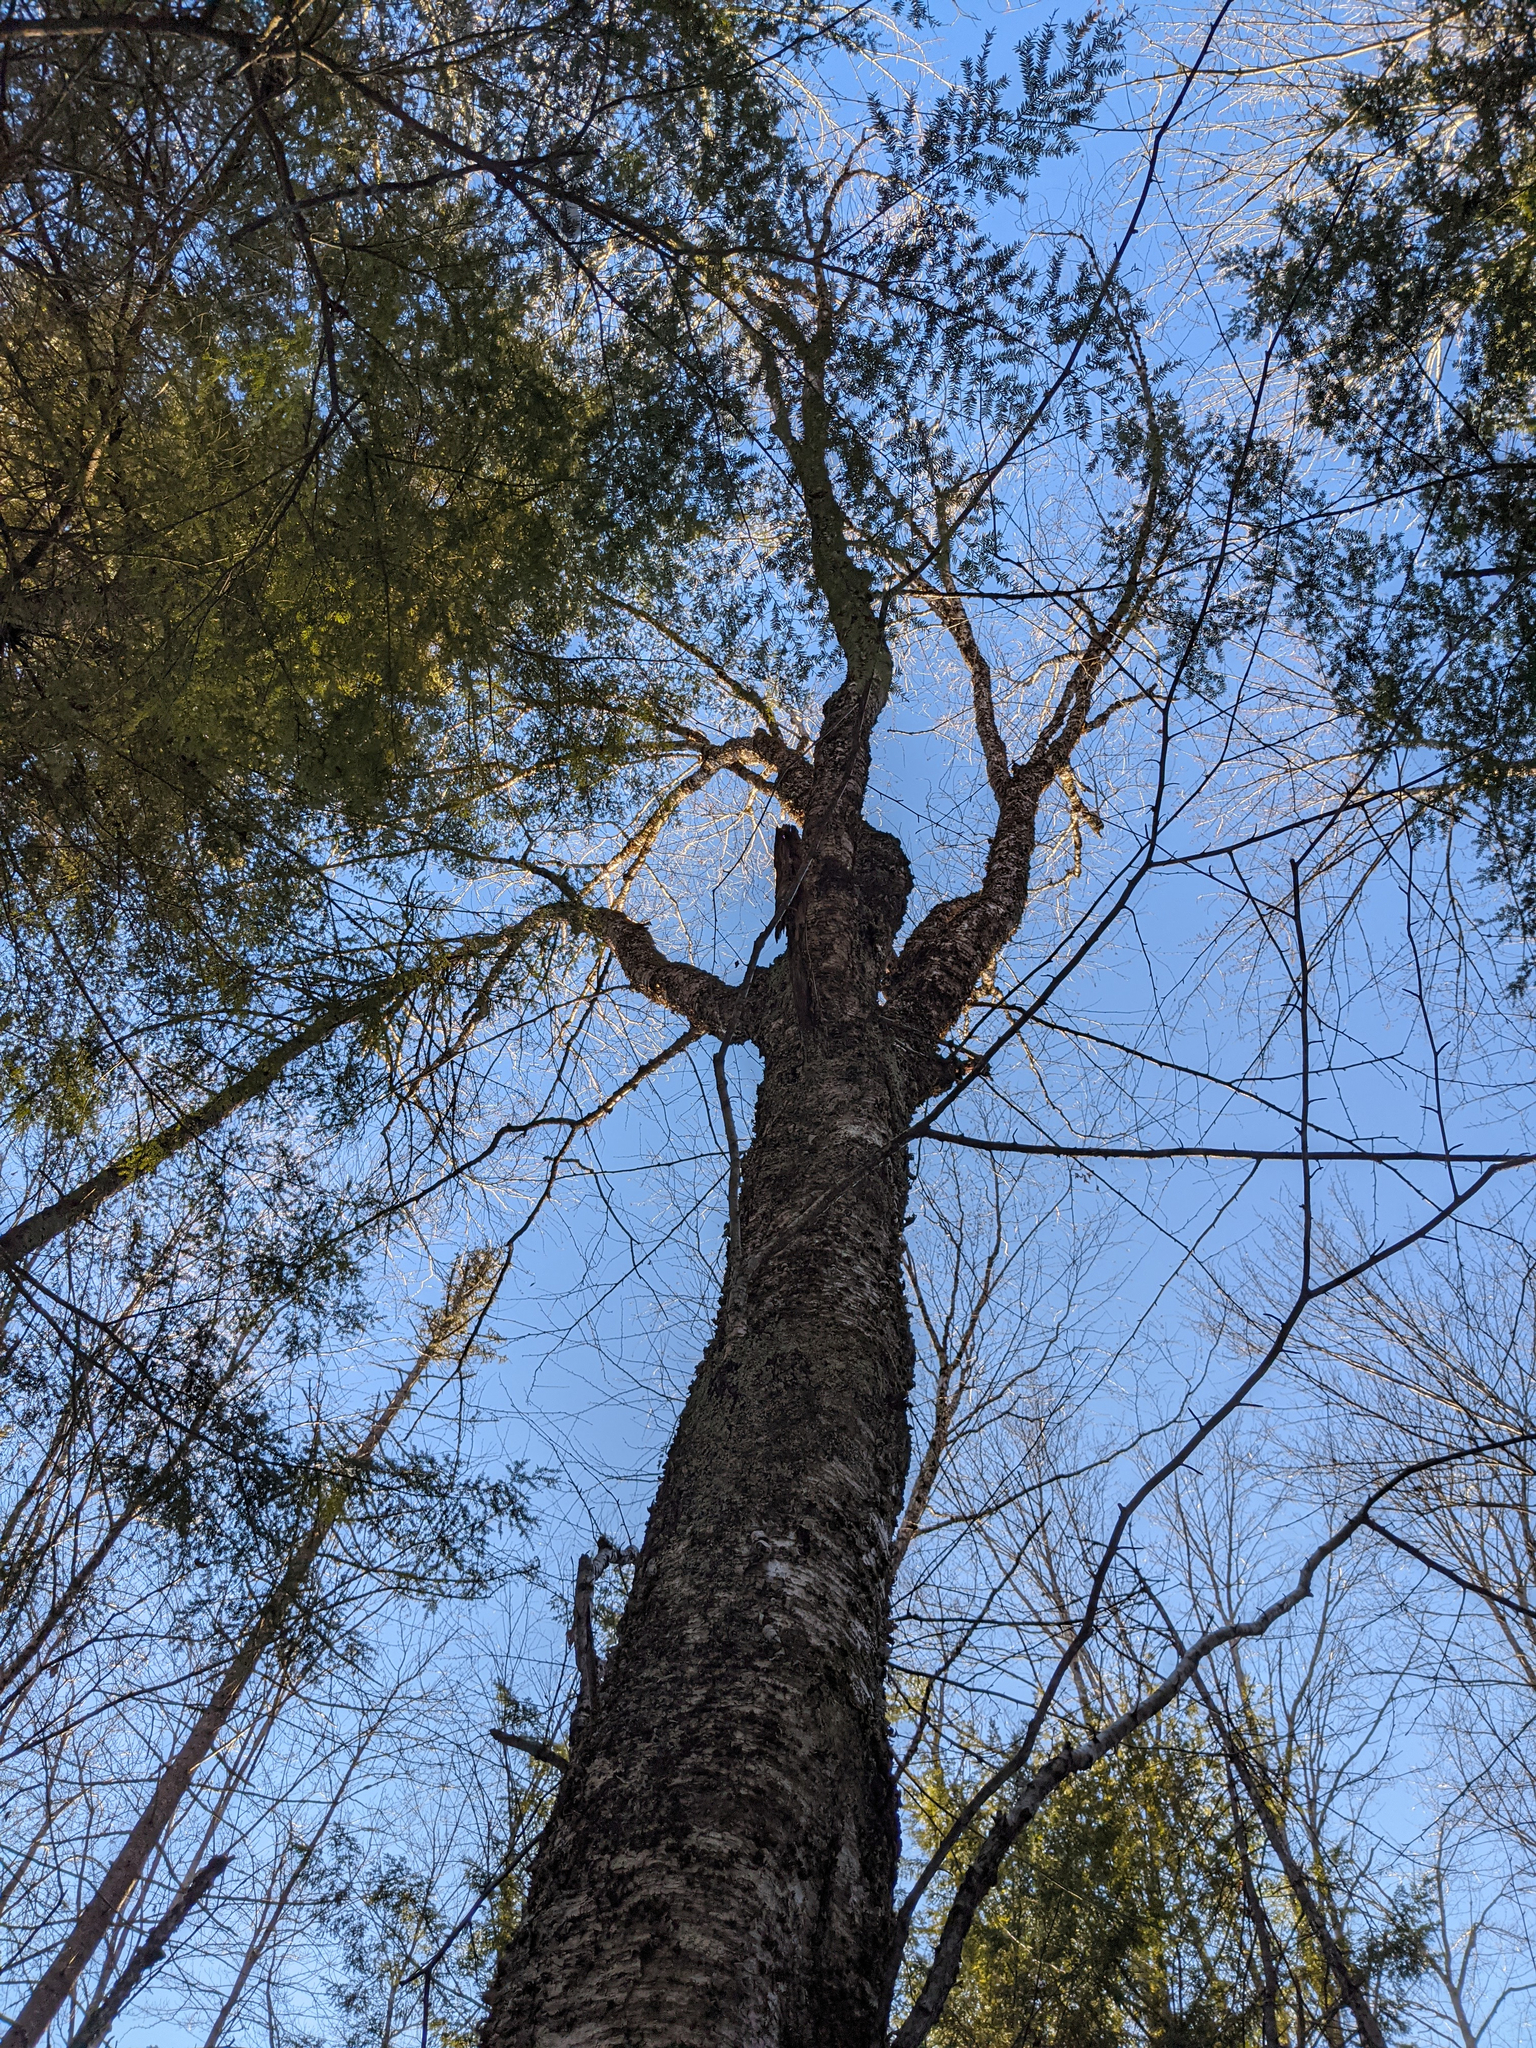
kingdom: Plantae
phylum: Tracheophyta
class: Magnoliopsida
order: Fagales
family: Betulaceae
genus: Betula
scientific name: Betula alleghaniensis
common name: Yellow birch
